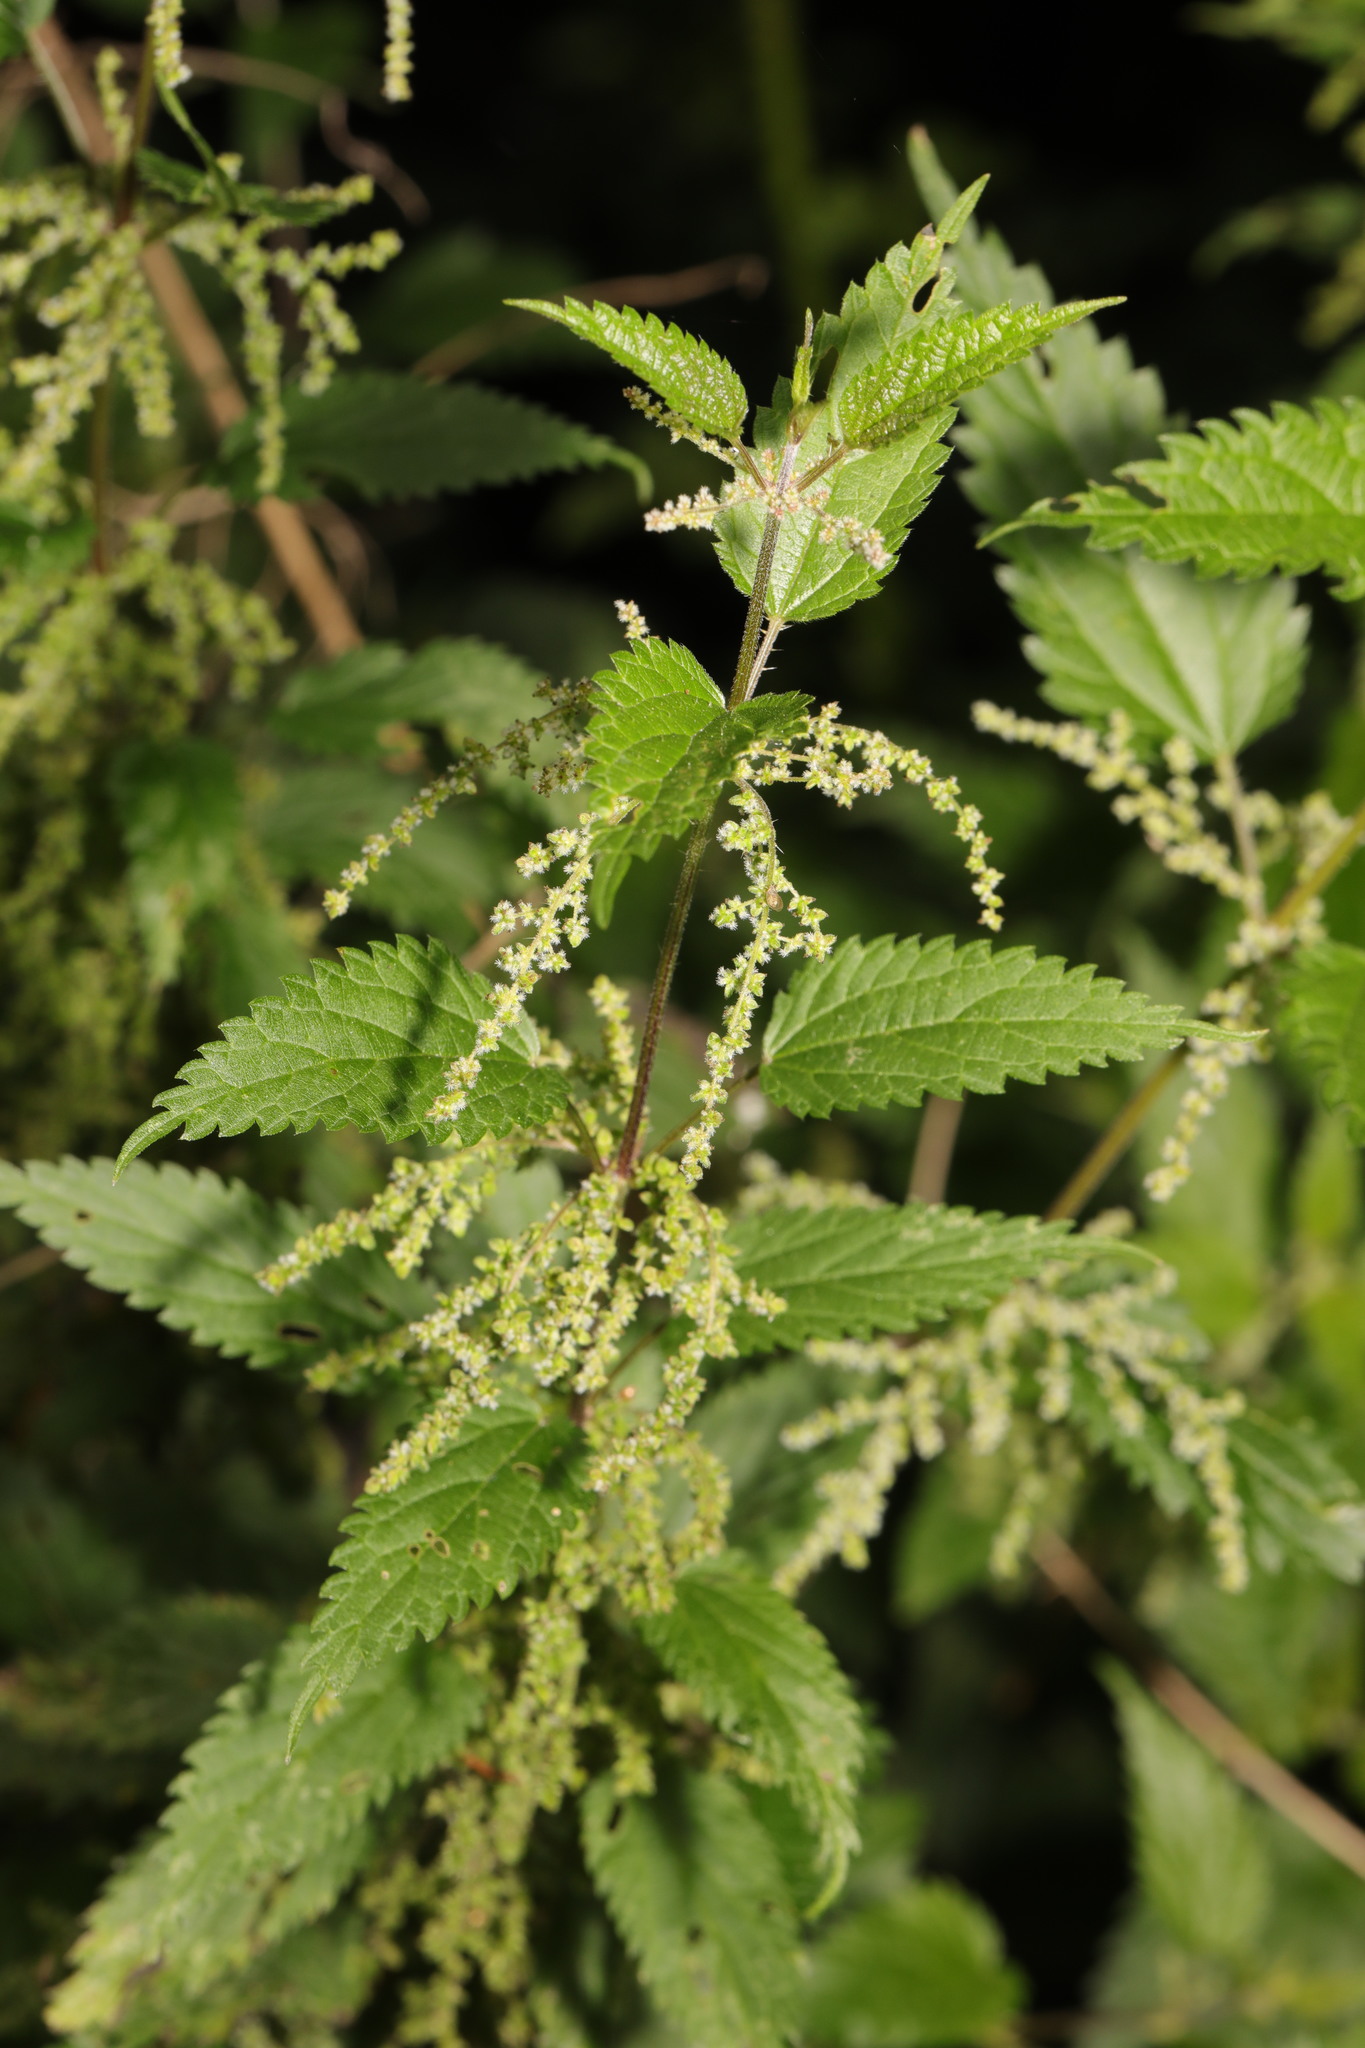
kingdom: Plantae
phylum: Tracheophyta
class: Magnoliopsida
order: Rosales
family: Urticaceae
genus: Urtica
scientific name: Urtica dioica
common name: Common nettle
